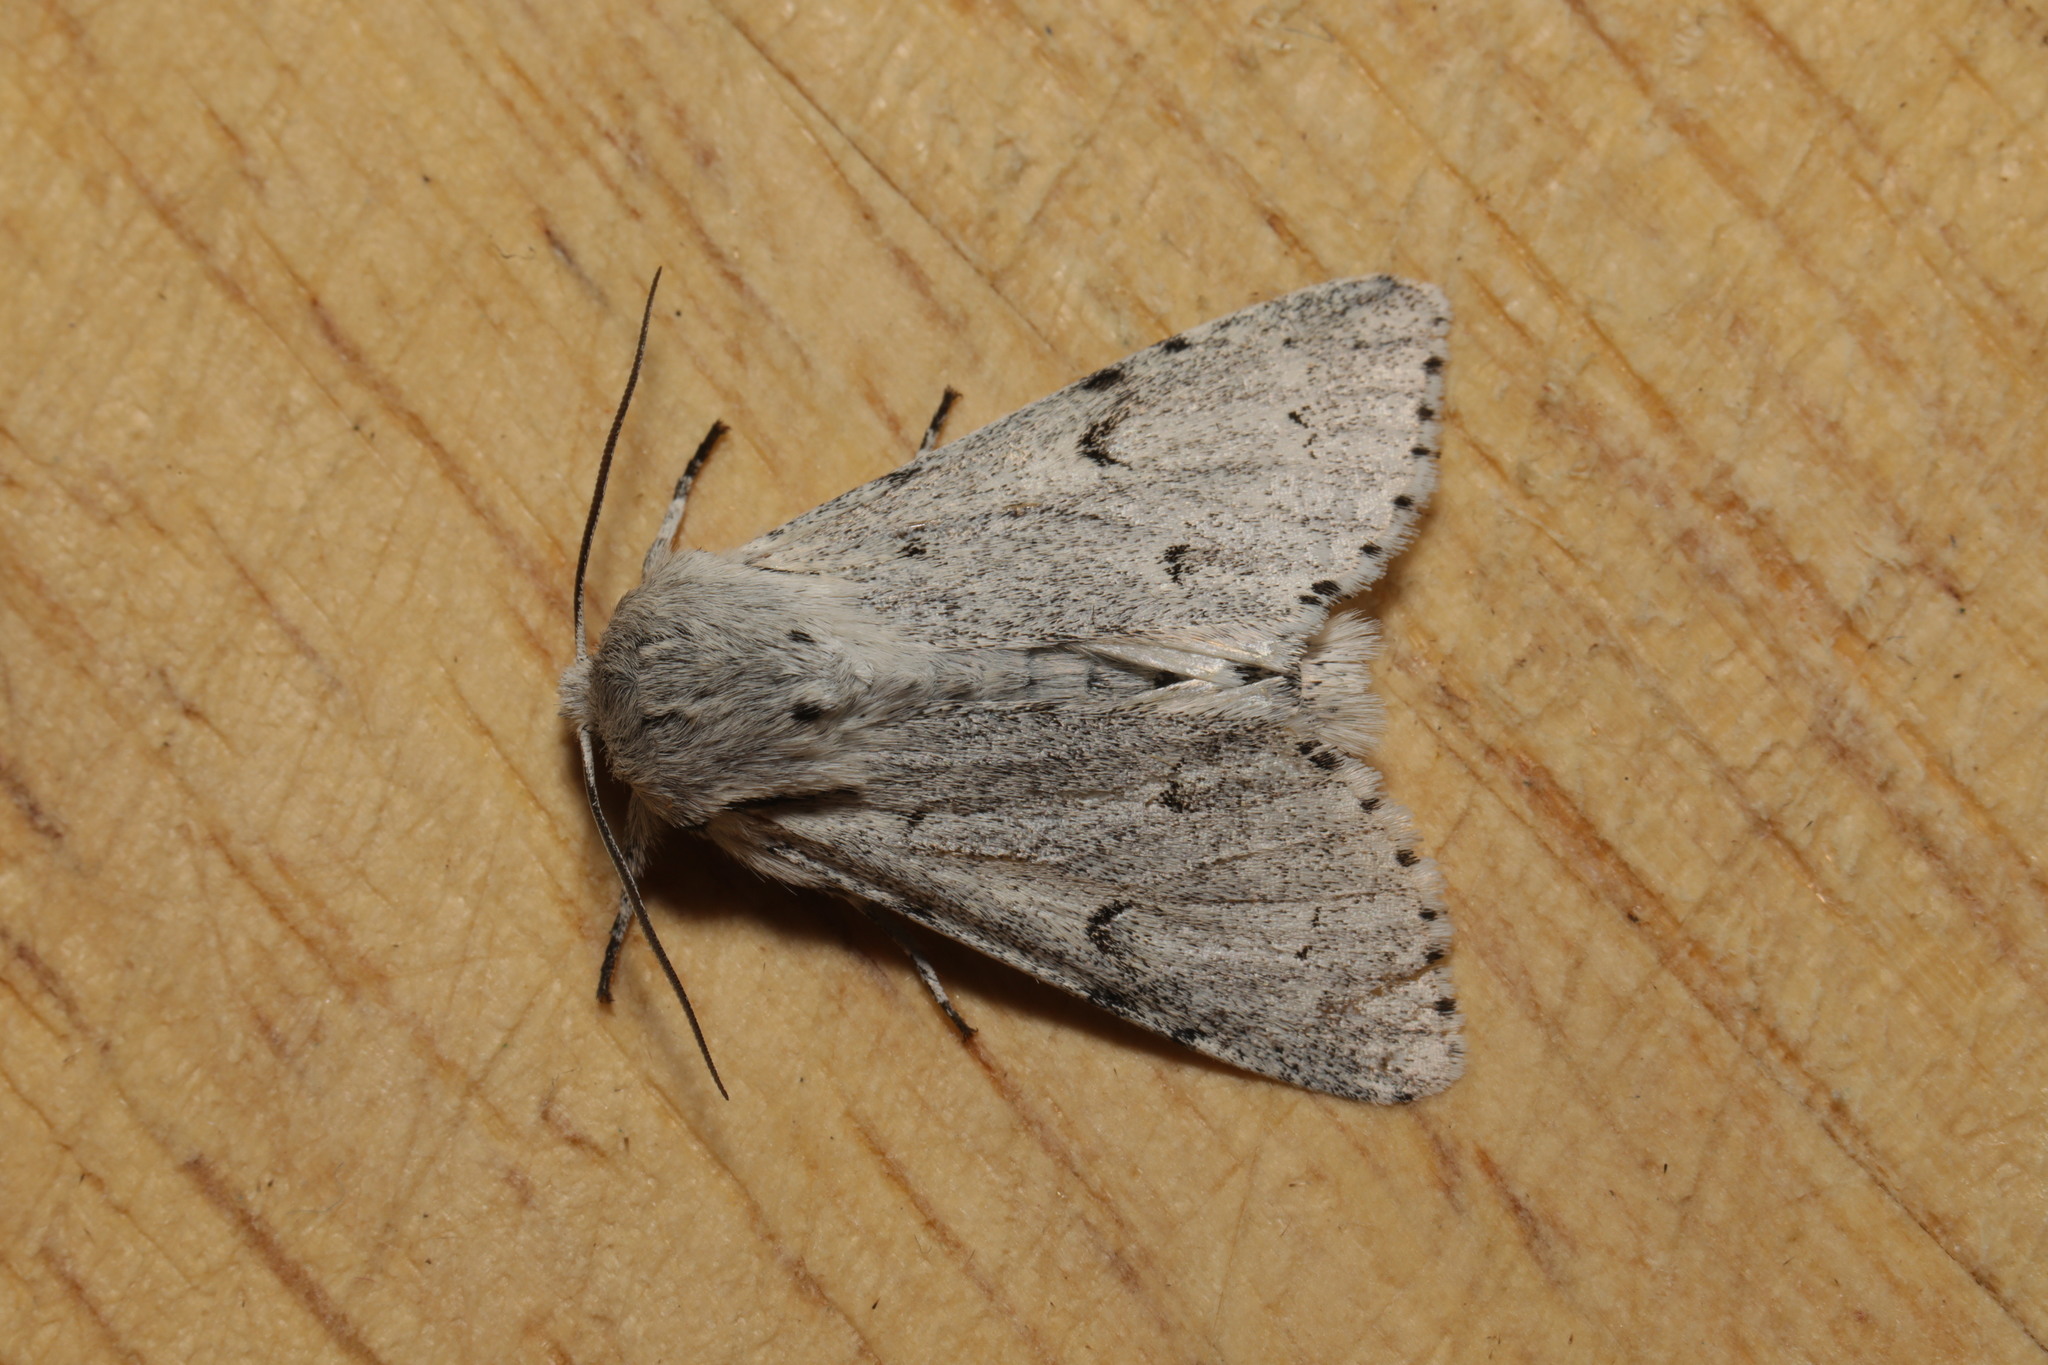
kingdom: Animalia
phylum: Arthropoda
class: Insecta
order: Lepidoptera
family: Noctuidae
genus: Acronicta
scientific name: Acronicta leporina
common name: Miller
